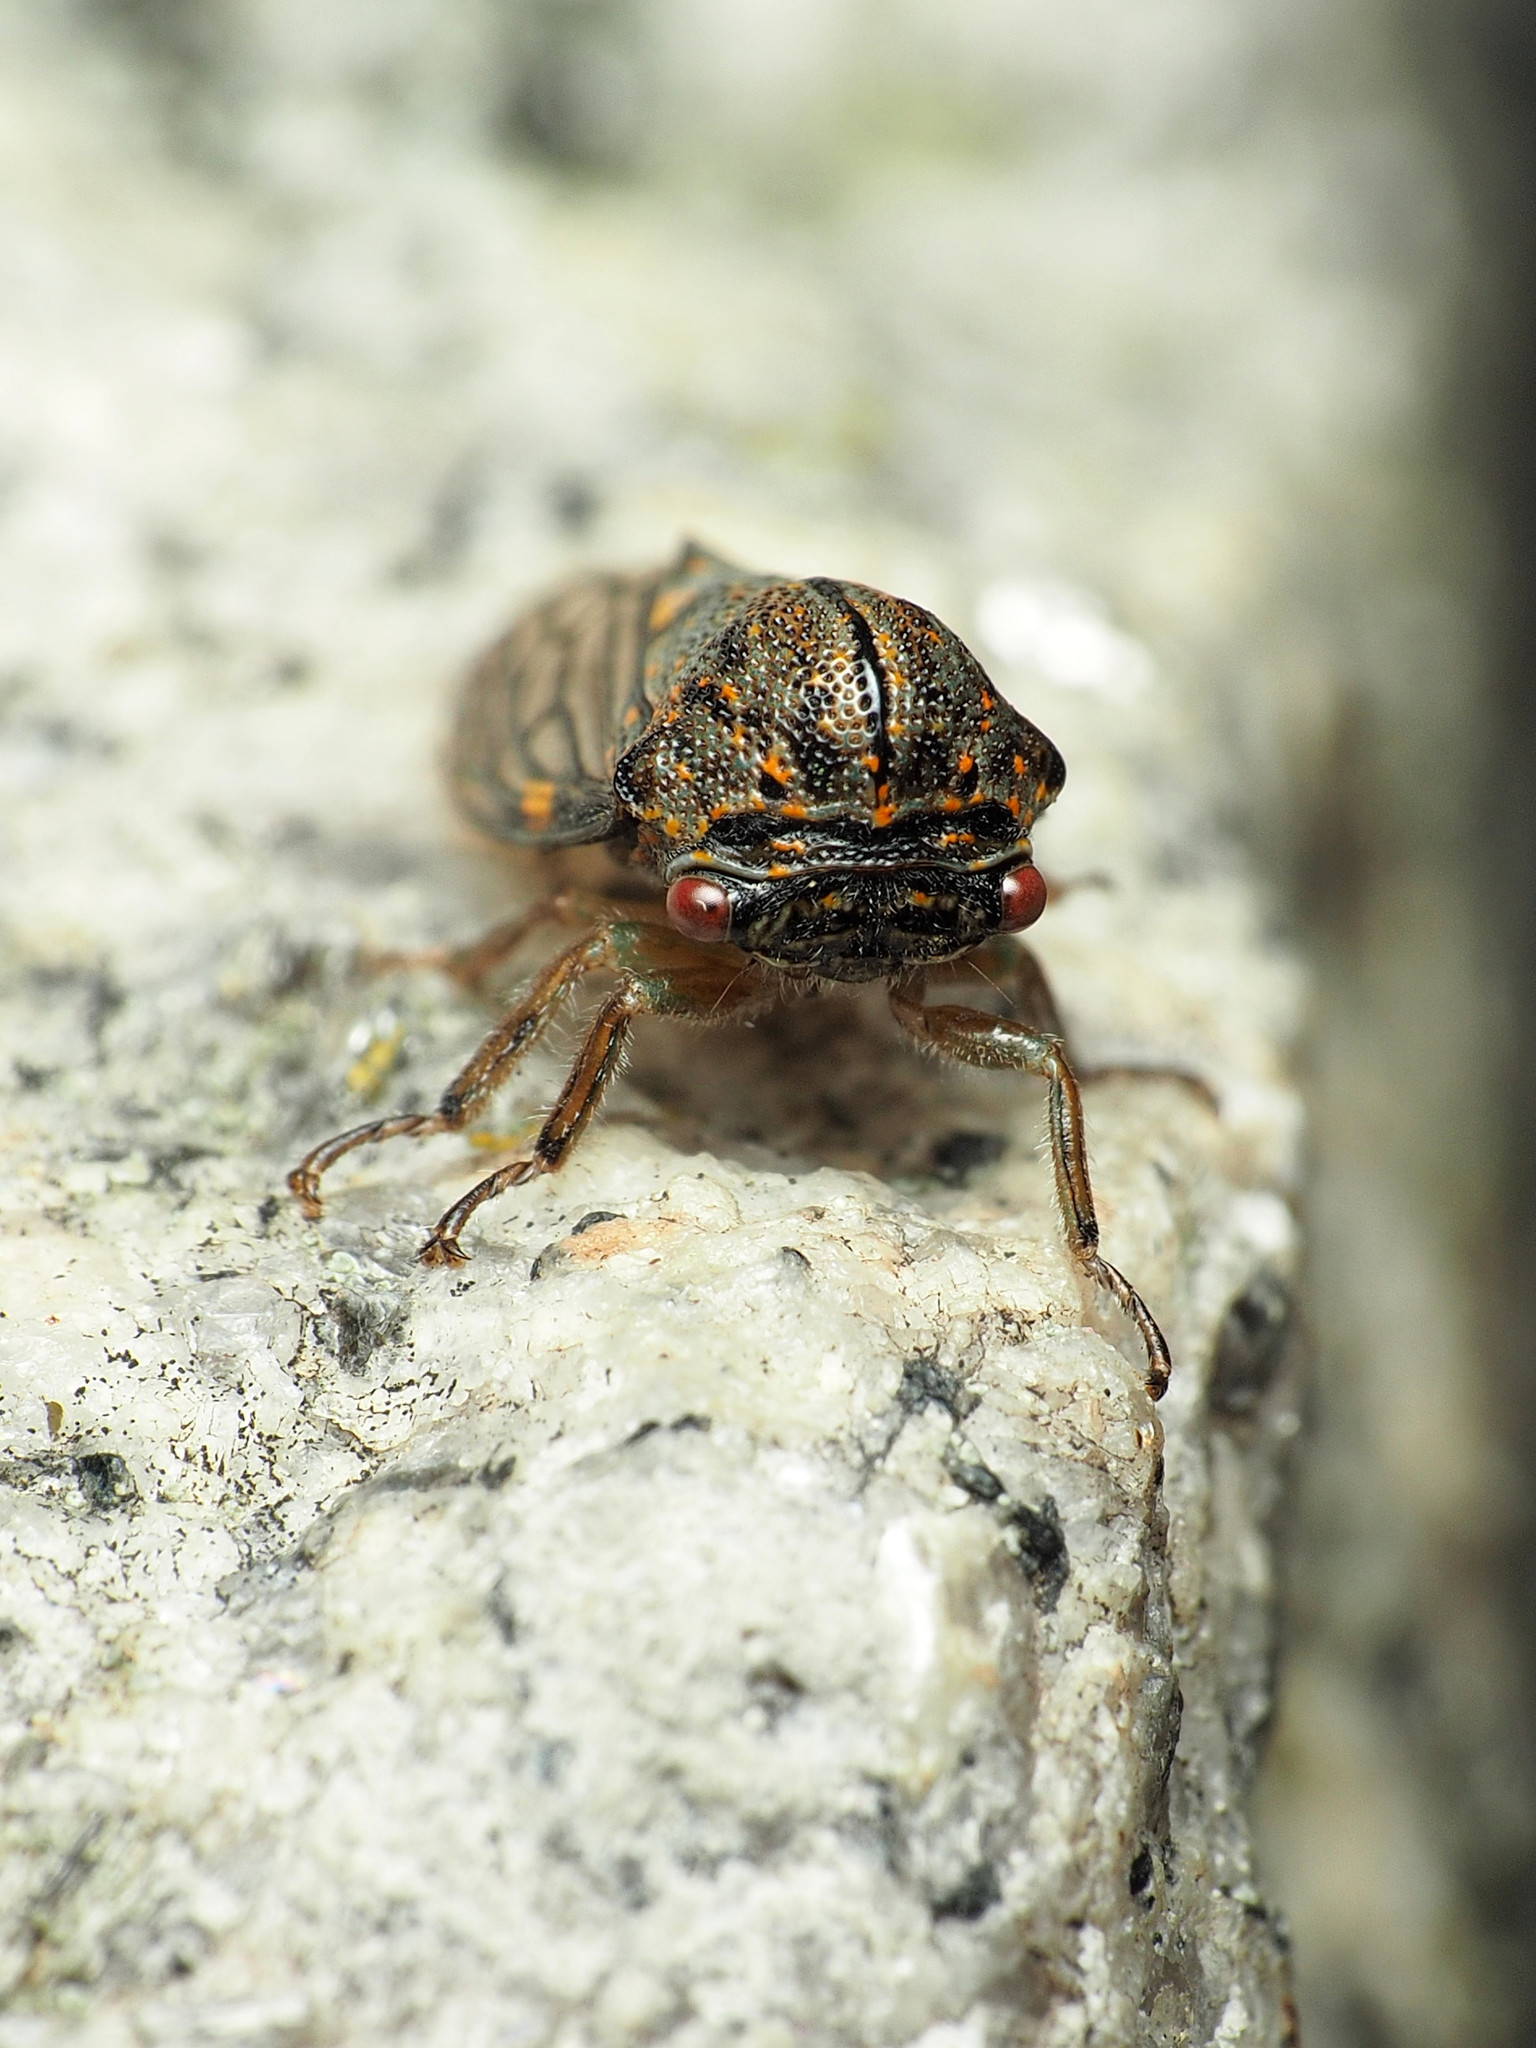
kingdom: Animalia
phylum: Arthropoda
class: Insecta
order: Hemiptera
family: Membracidae
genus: Platycotis
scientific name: Platycotis vittatus
